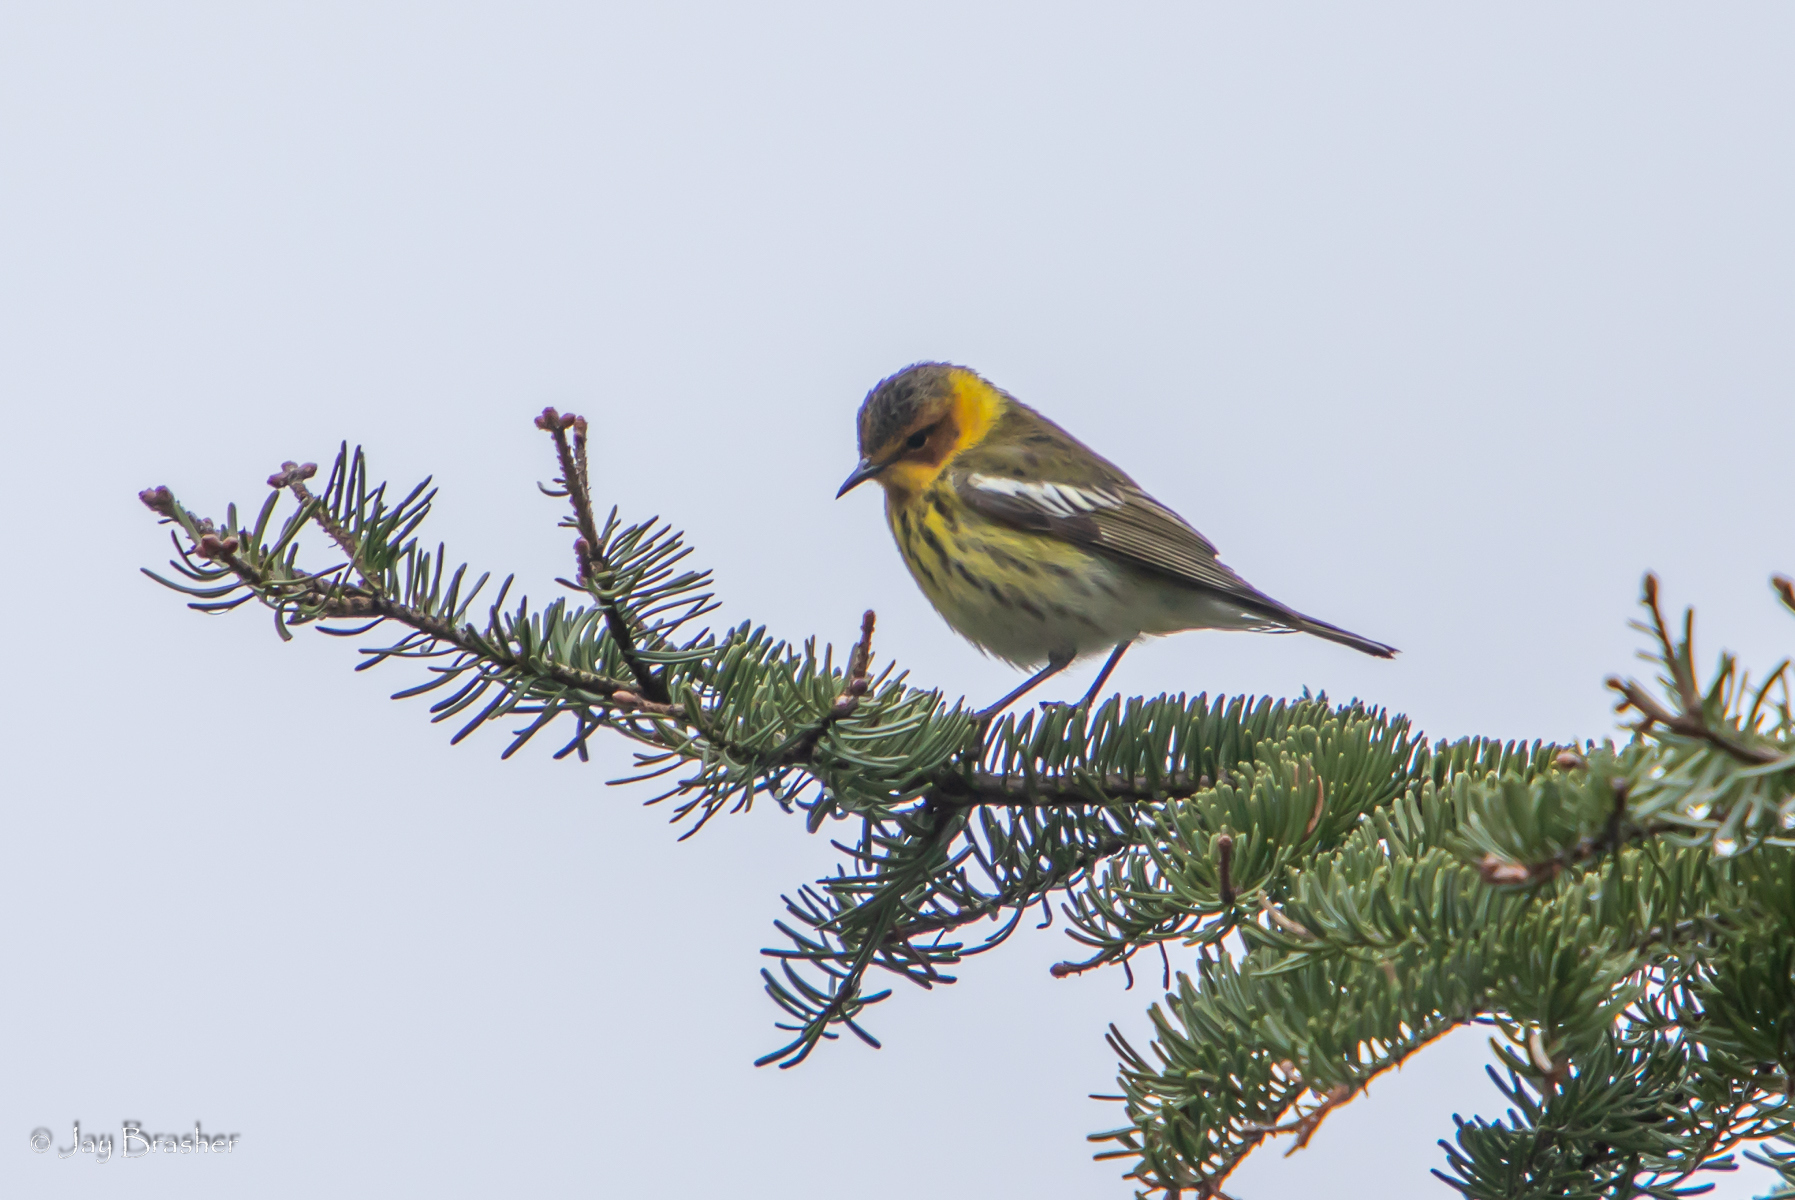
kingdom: Animalia
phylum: Chordata
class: Aves
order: Passeriformes
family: Parulidae
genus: Setophaga
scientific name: Setophaga tigrina
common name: Cape may warbler
